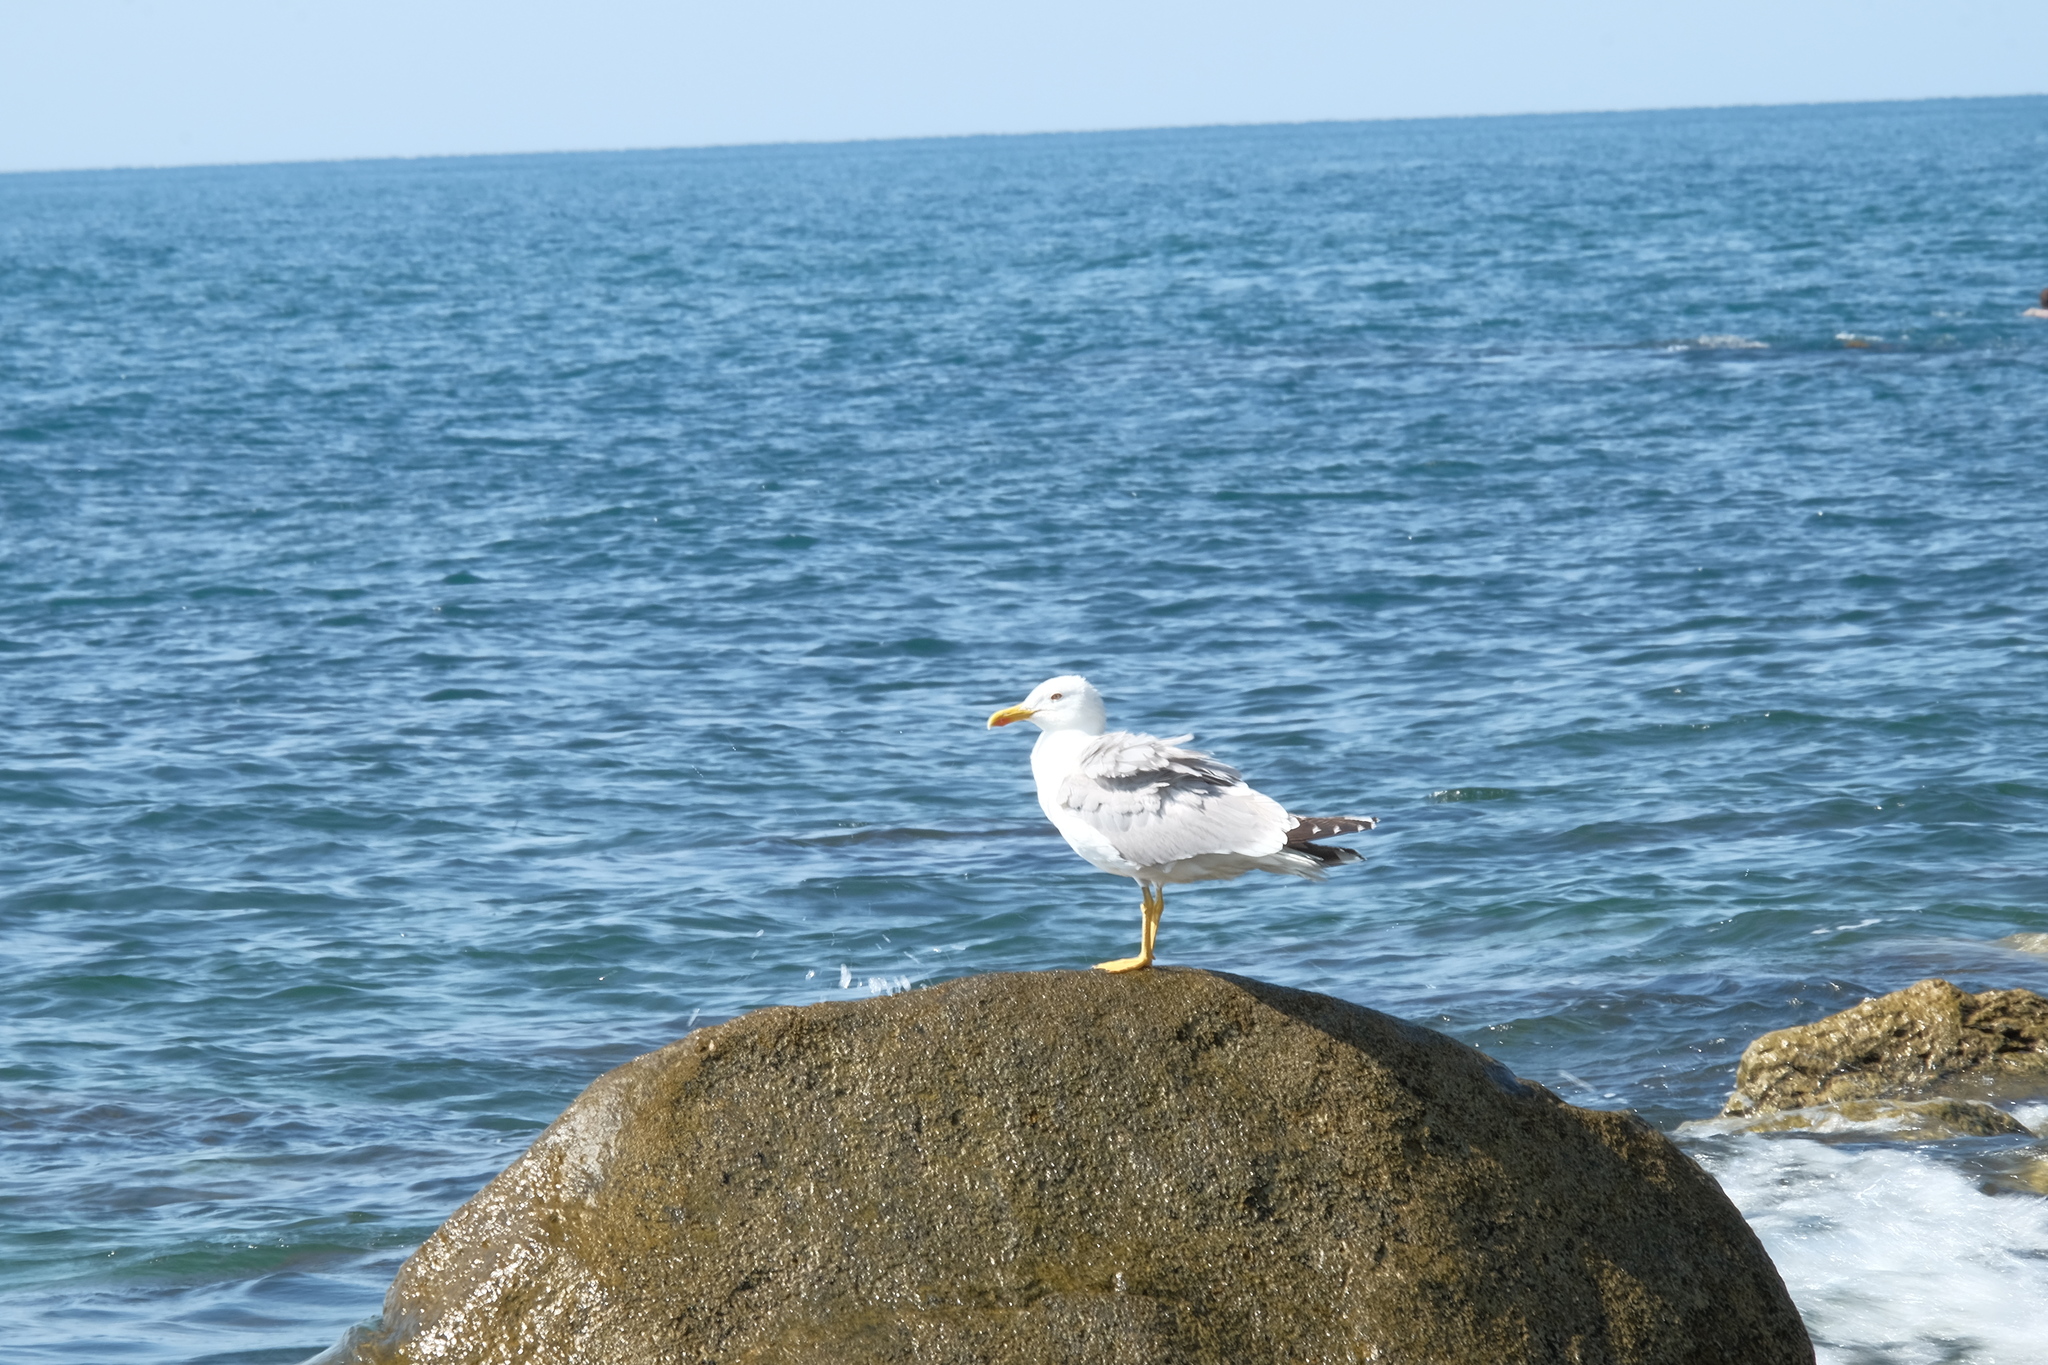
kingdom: Animalia
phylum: Chordata
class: Aves
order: Charadriiformes
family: Laridae
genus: Larus
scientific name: Larus michahellis
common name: Yellow-legged gull
